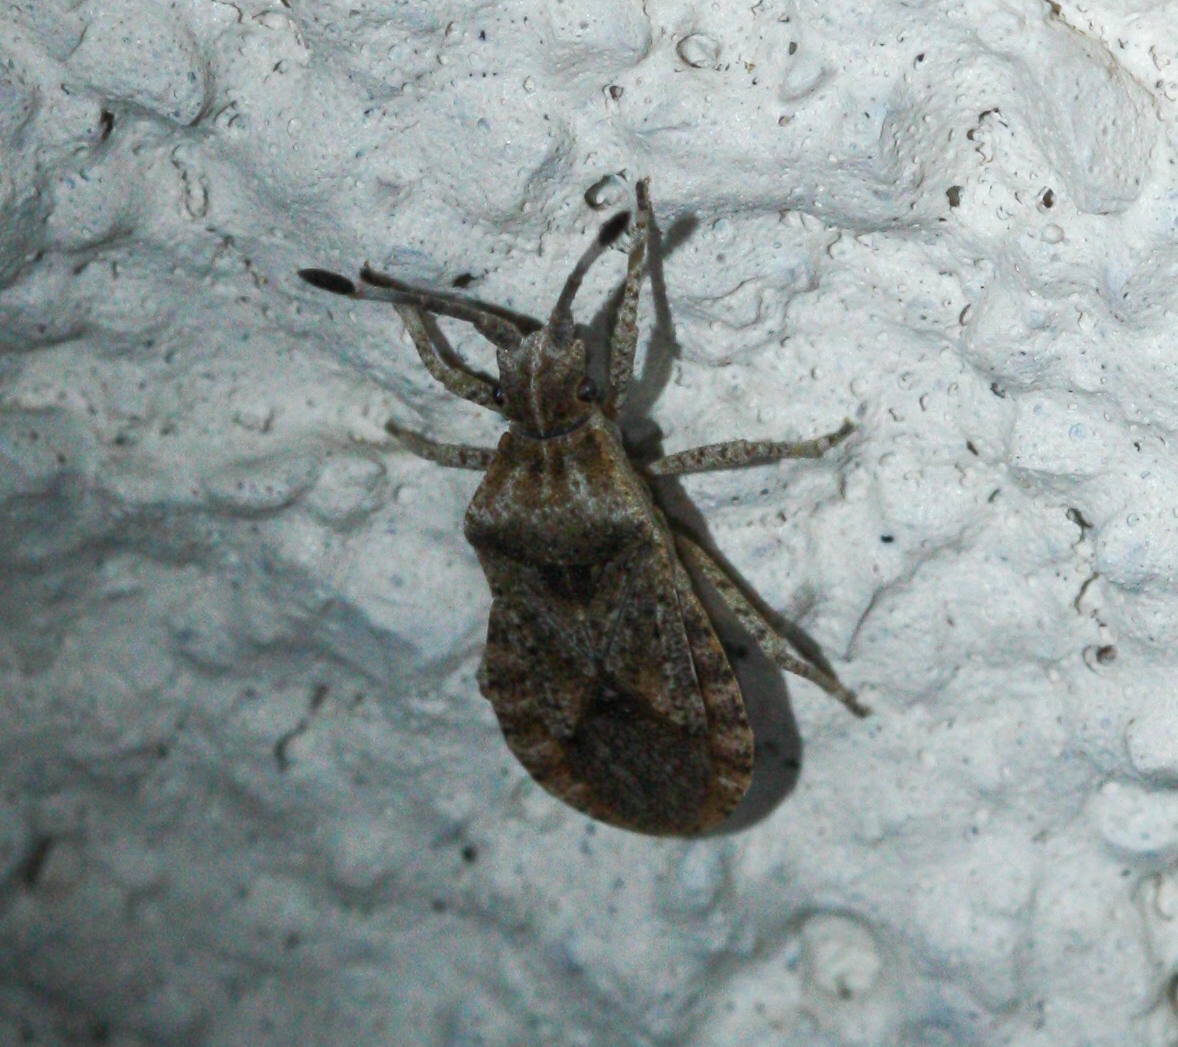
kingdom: Animalia
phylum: Arthropoda
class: Insecta
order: Hemiptera
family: Coreidae
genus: Scolopocerus
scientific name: Scolopocerus uhleri
